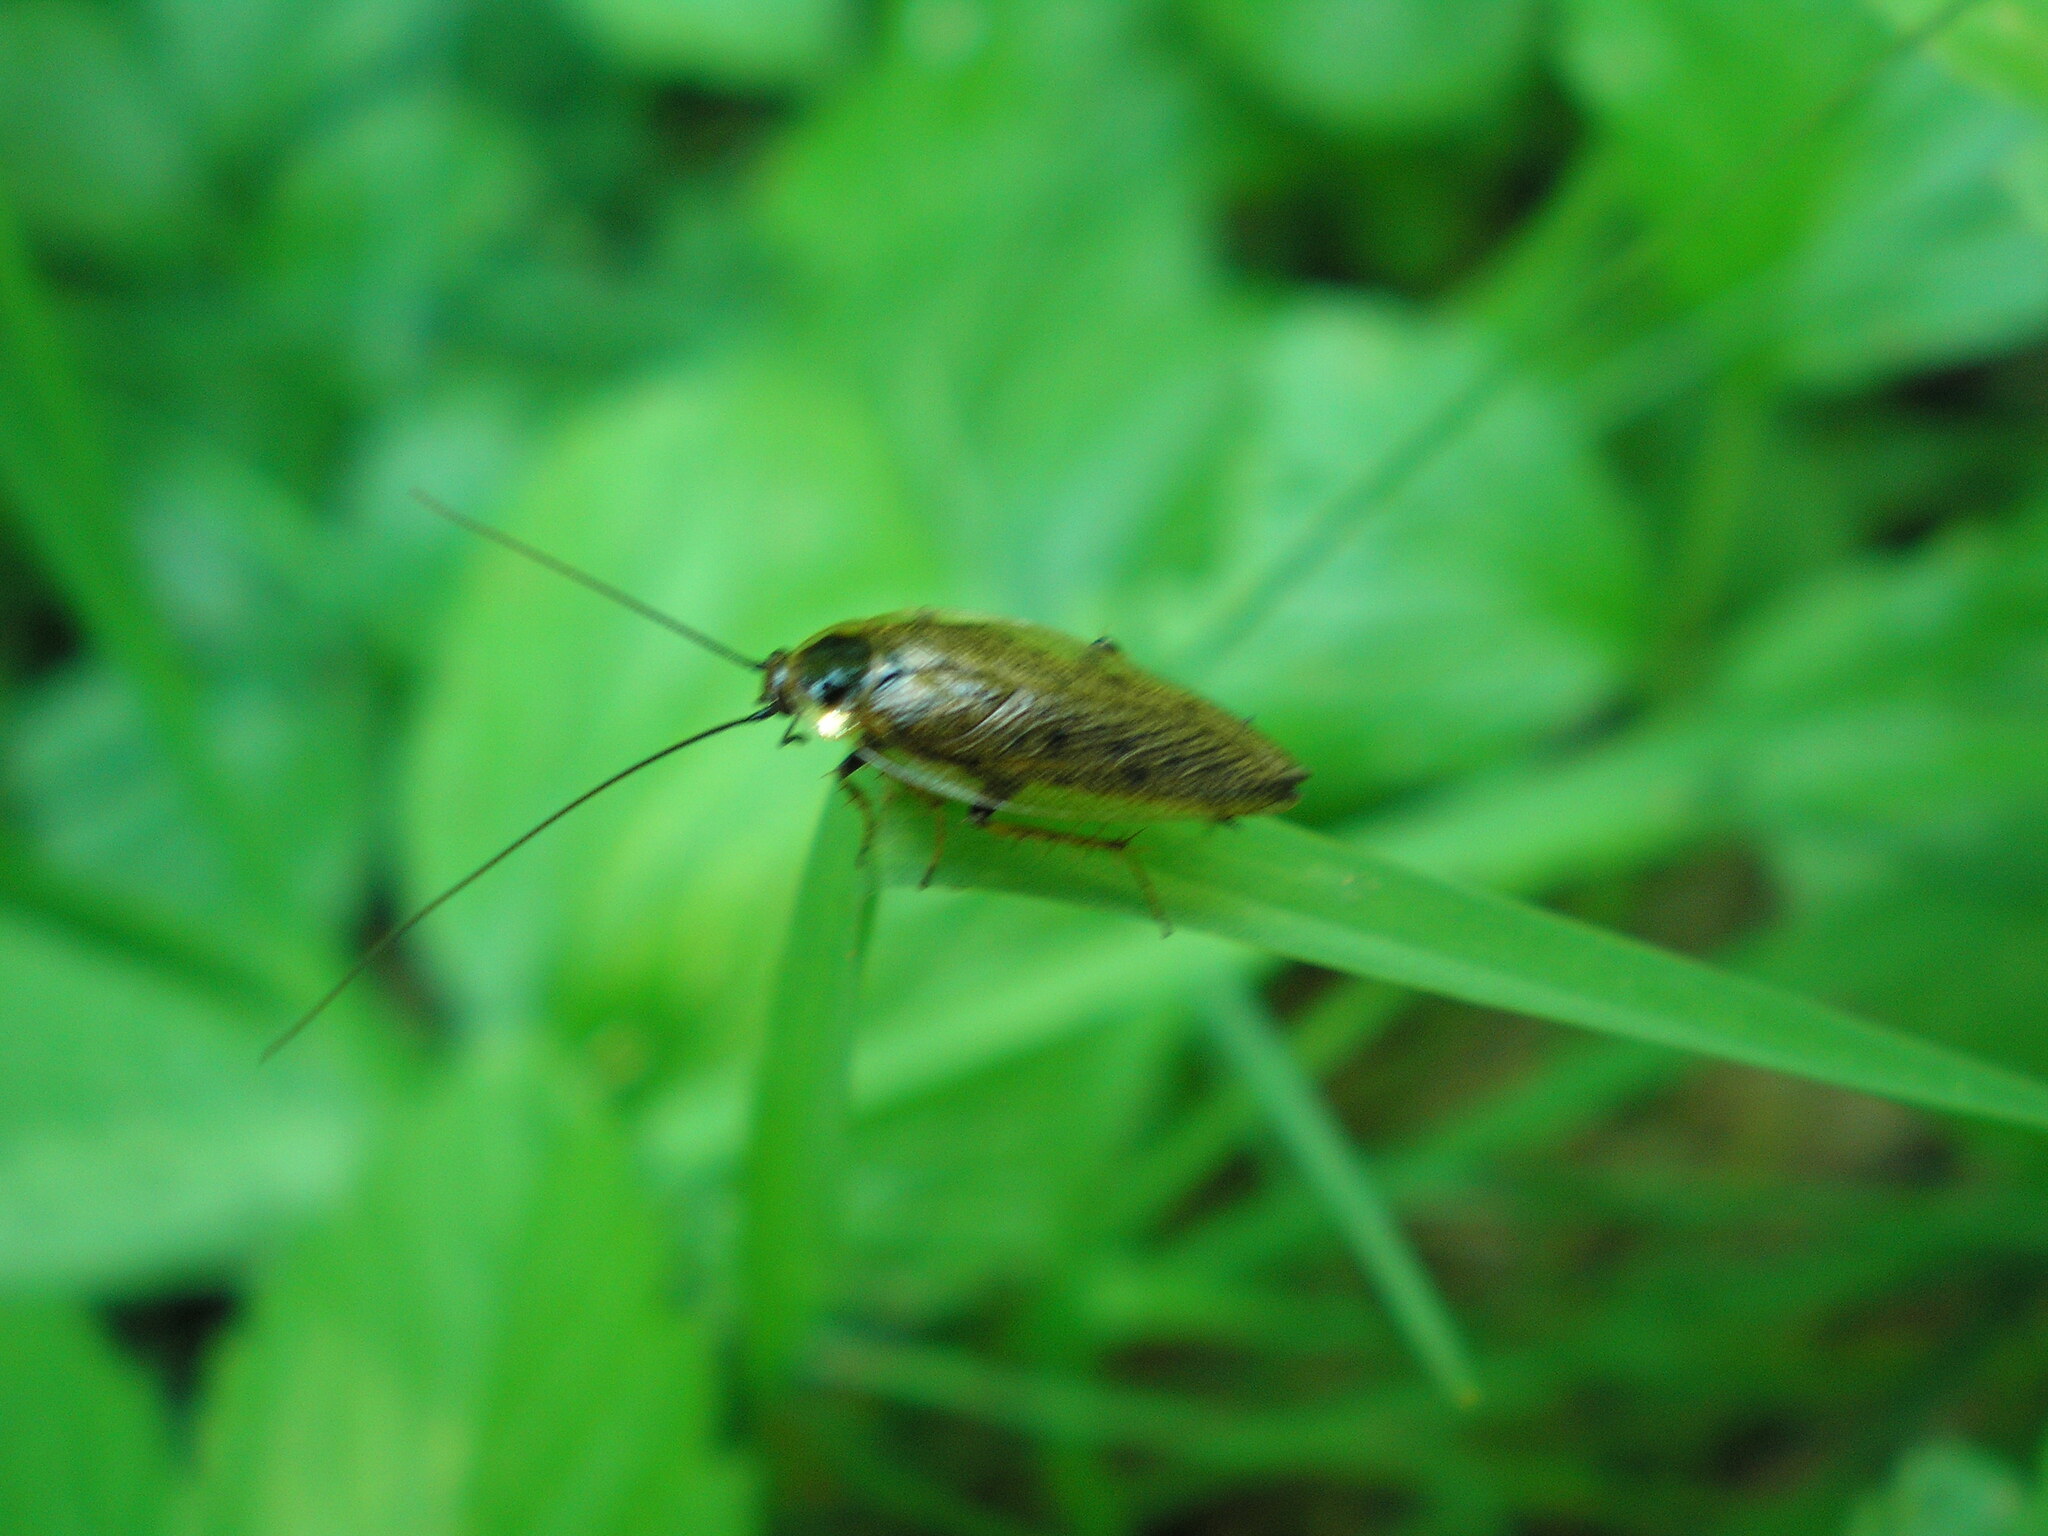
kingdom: Animalia
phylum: Arthropoda
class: Insecta
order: Blattodea
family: Ectobiidae
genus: Ectobius
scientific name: Ectobius lapponicus
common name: Dusky cockroach
